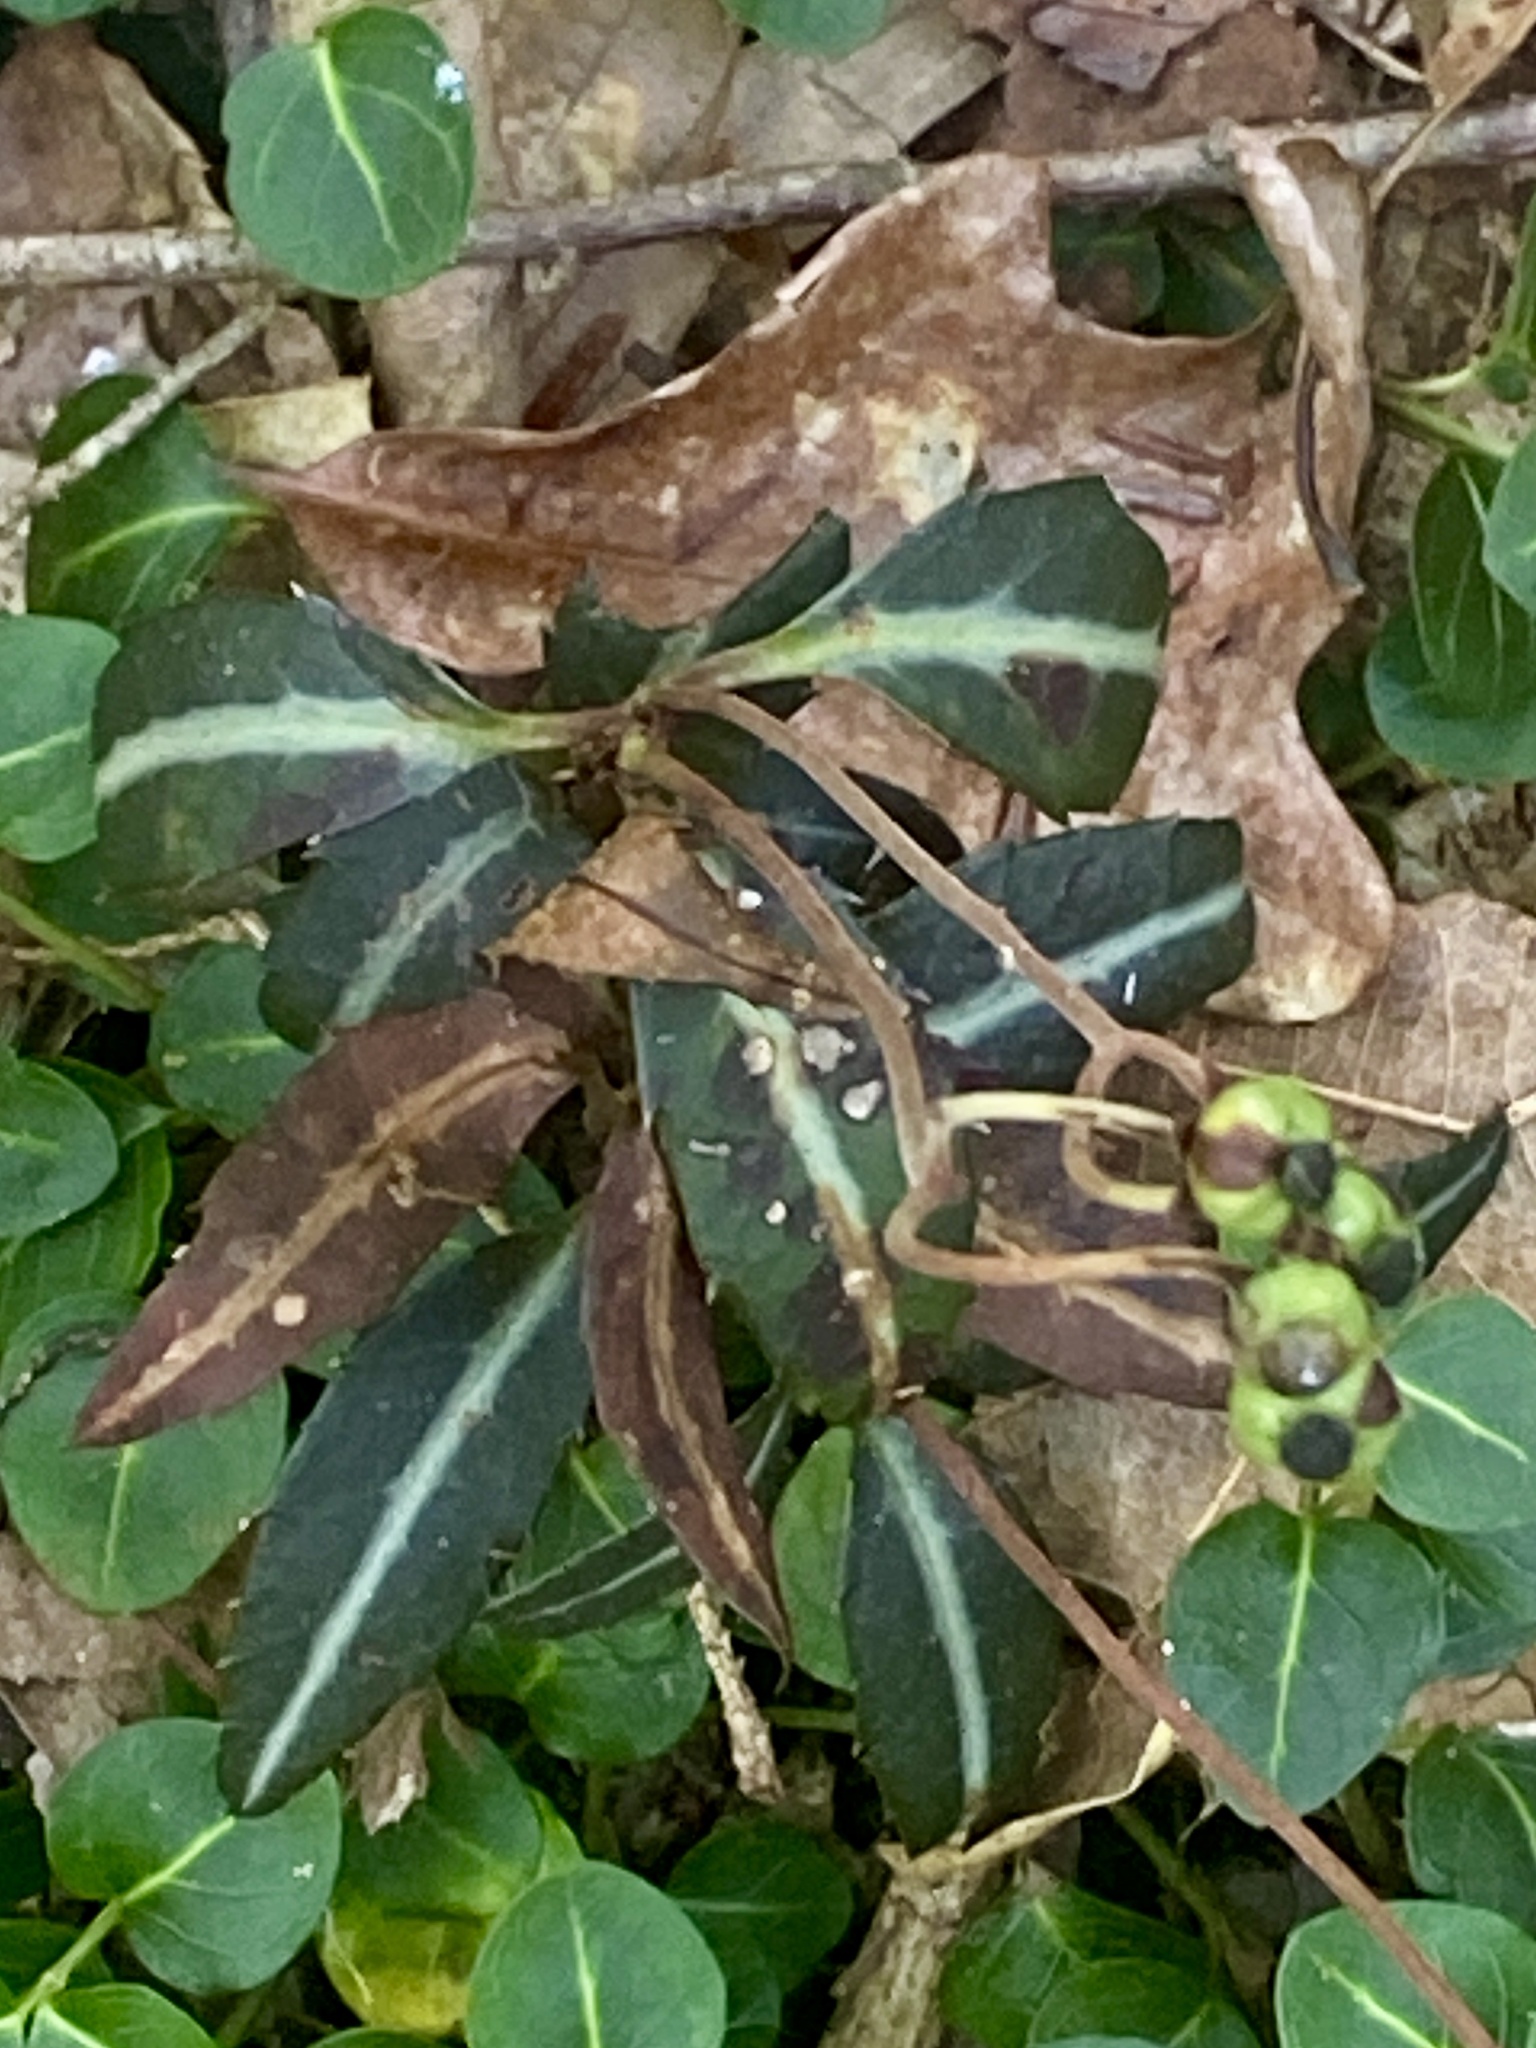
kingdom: Plantae
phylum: Tracheophyta
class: Magnoliopsida
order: Ericales
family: Ericaceae
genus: Chimaphila
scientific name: Chimaphila maculata
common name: Spotted pipsissewa
